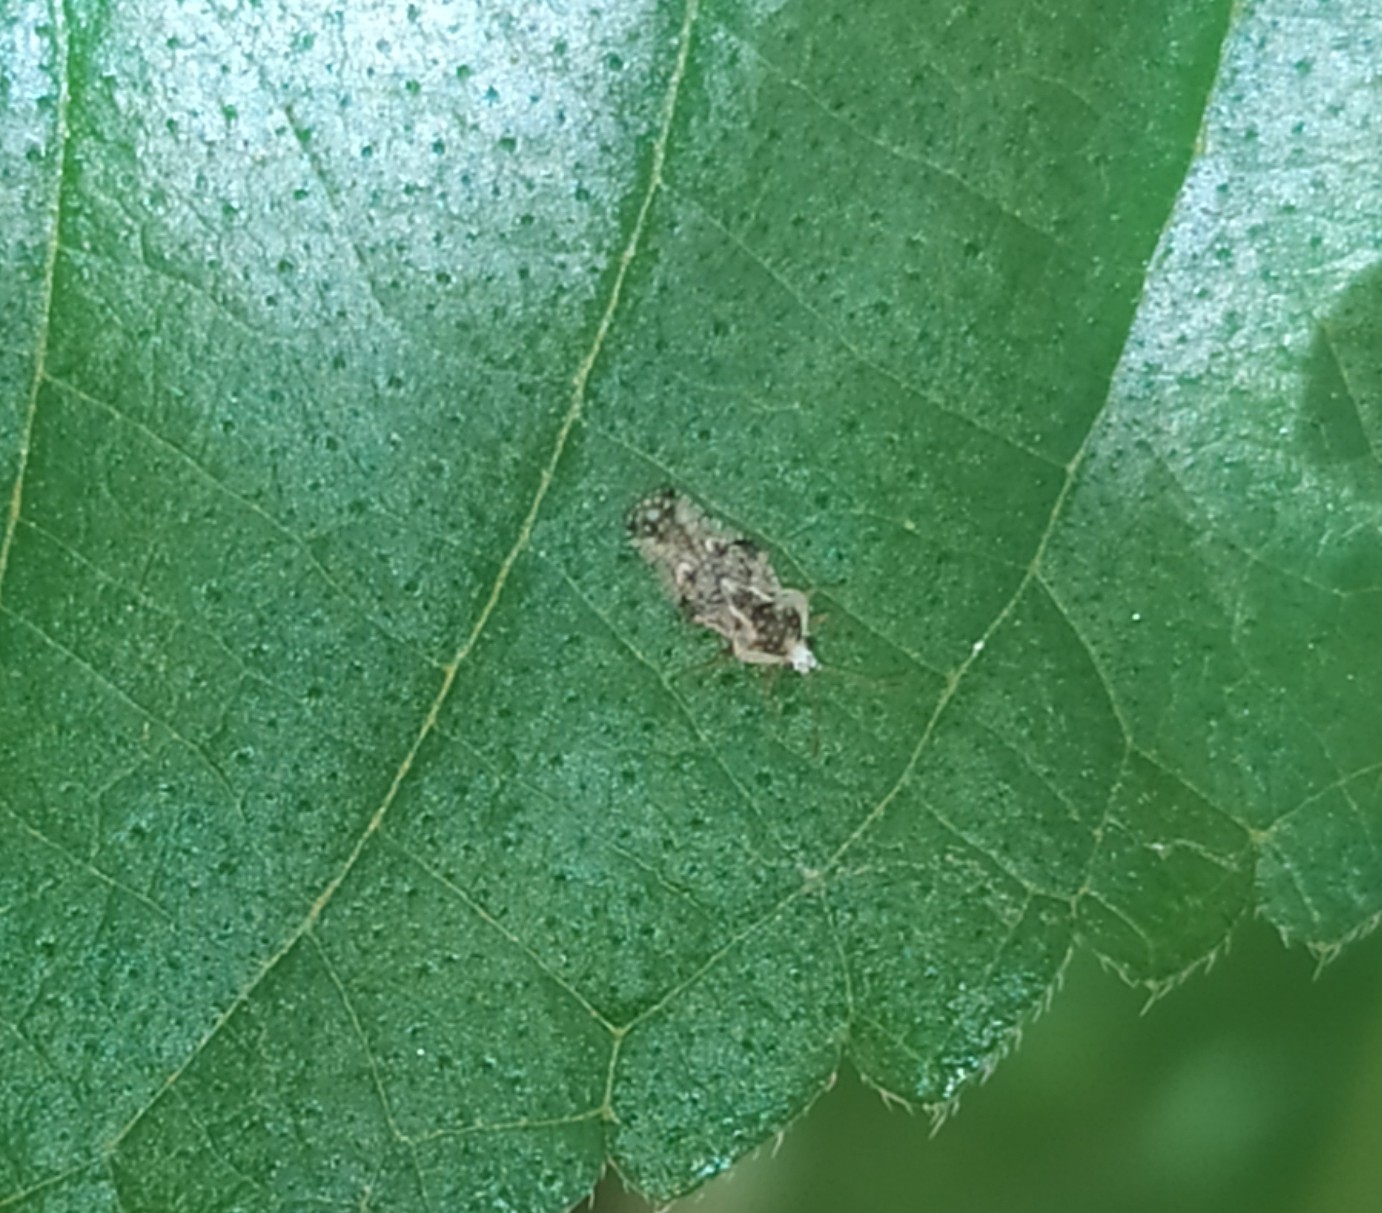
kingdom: Animalia
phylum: Arthropoda
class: Insecta
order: Hemiptera
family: Tingidae
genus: Corythauma
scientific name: Corythauma ayyari
